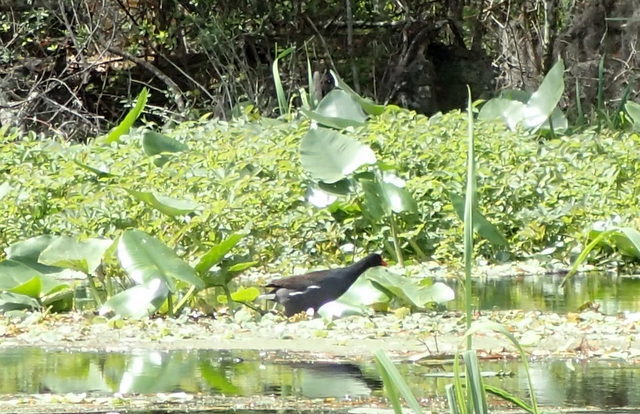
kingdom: Animalia
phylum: Chordata
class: Aves
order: Gruiformes
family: Rallidae
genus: Gallinula
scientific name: Gallinula chloropus
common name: Common moorhen
